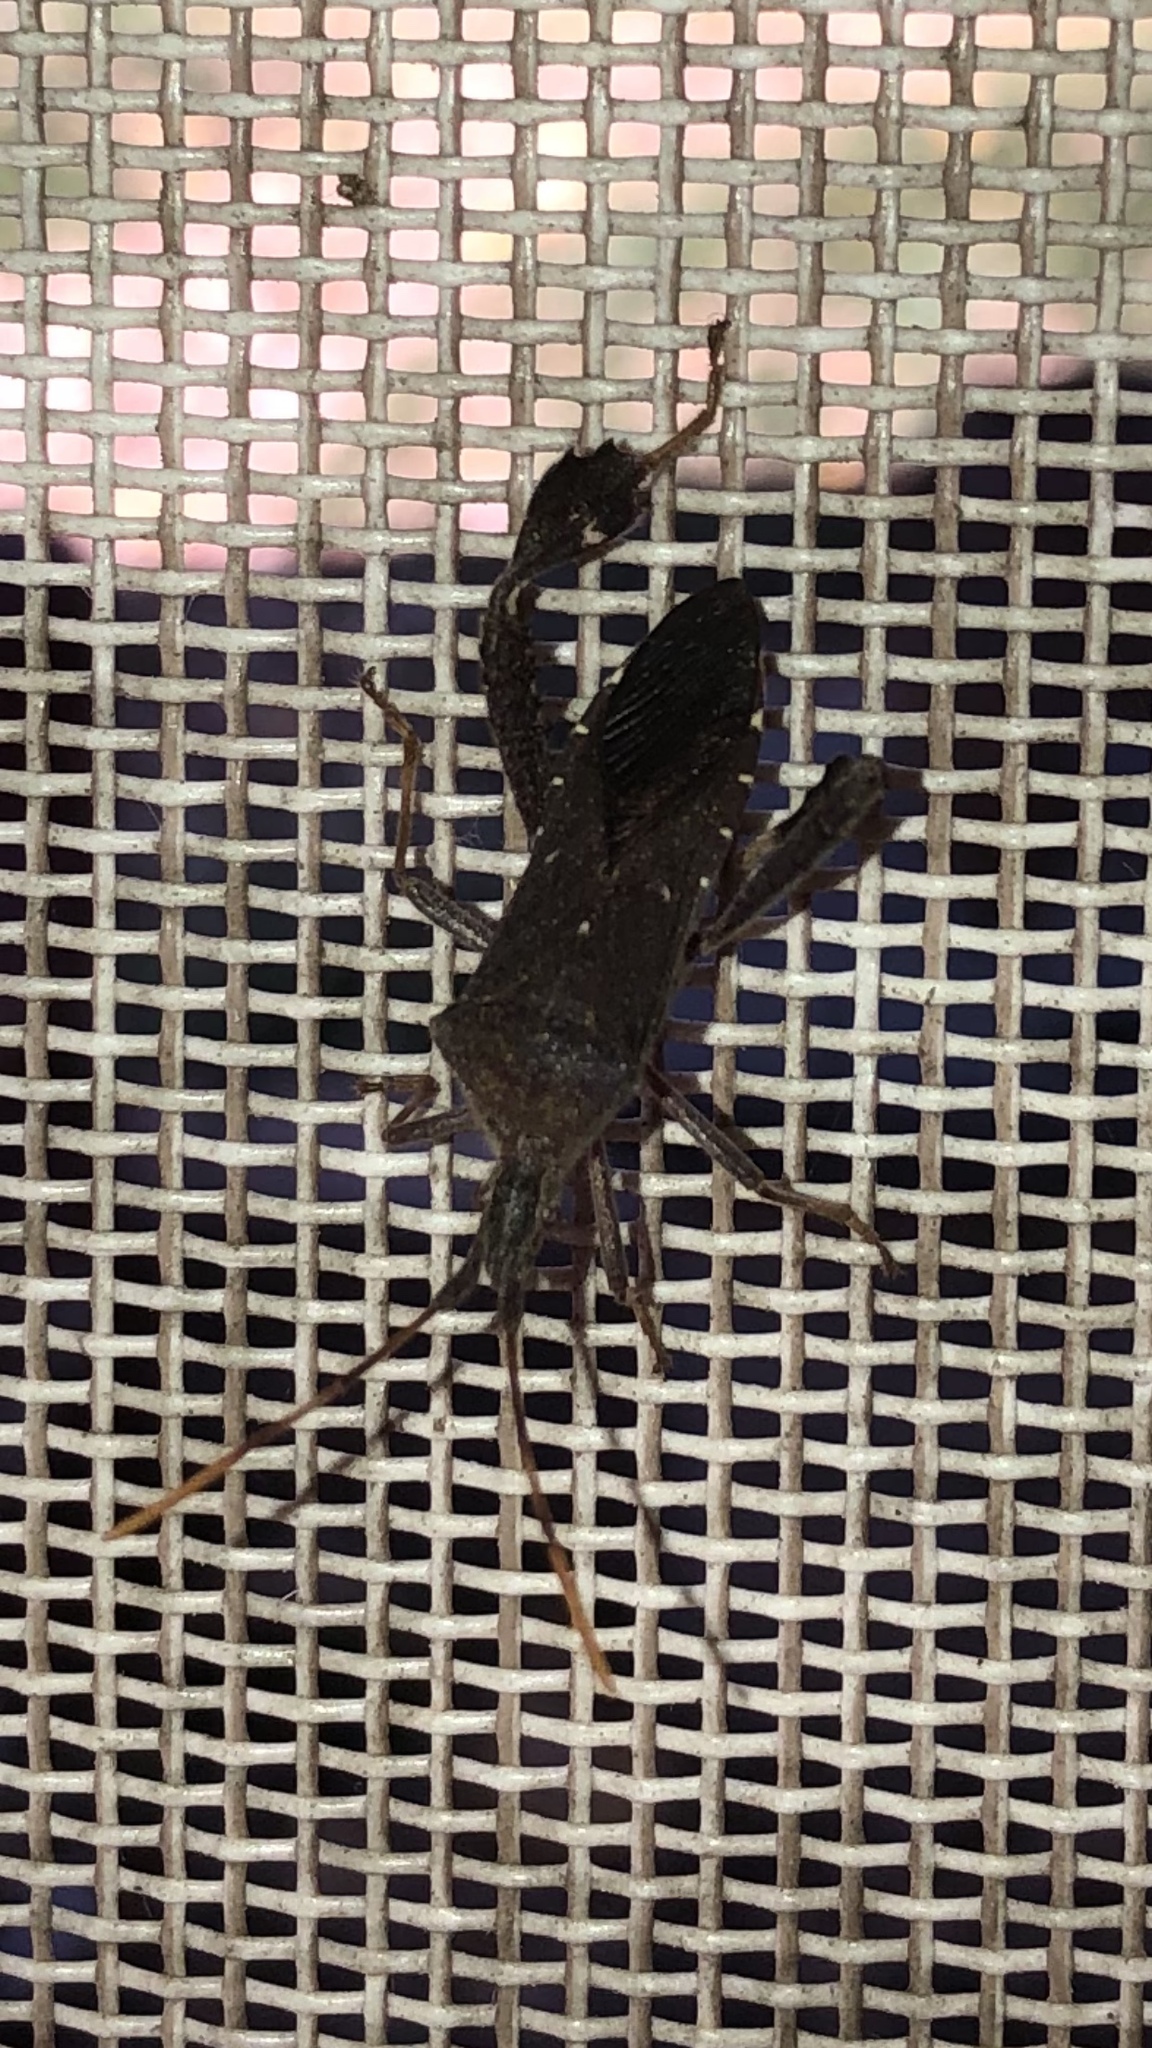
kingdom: Animalia
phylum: Arthropoda
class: Insecta
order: Hemiptera
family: Coreidae
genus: Leptoglossus
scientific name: Leptoglossus oppositus
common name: Northern leaf-footed bug
